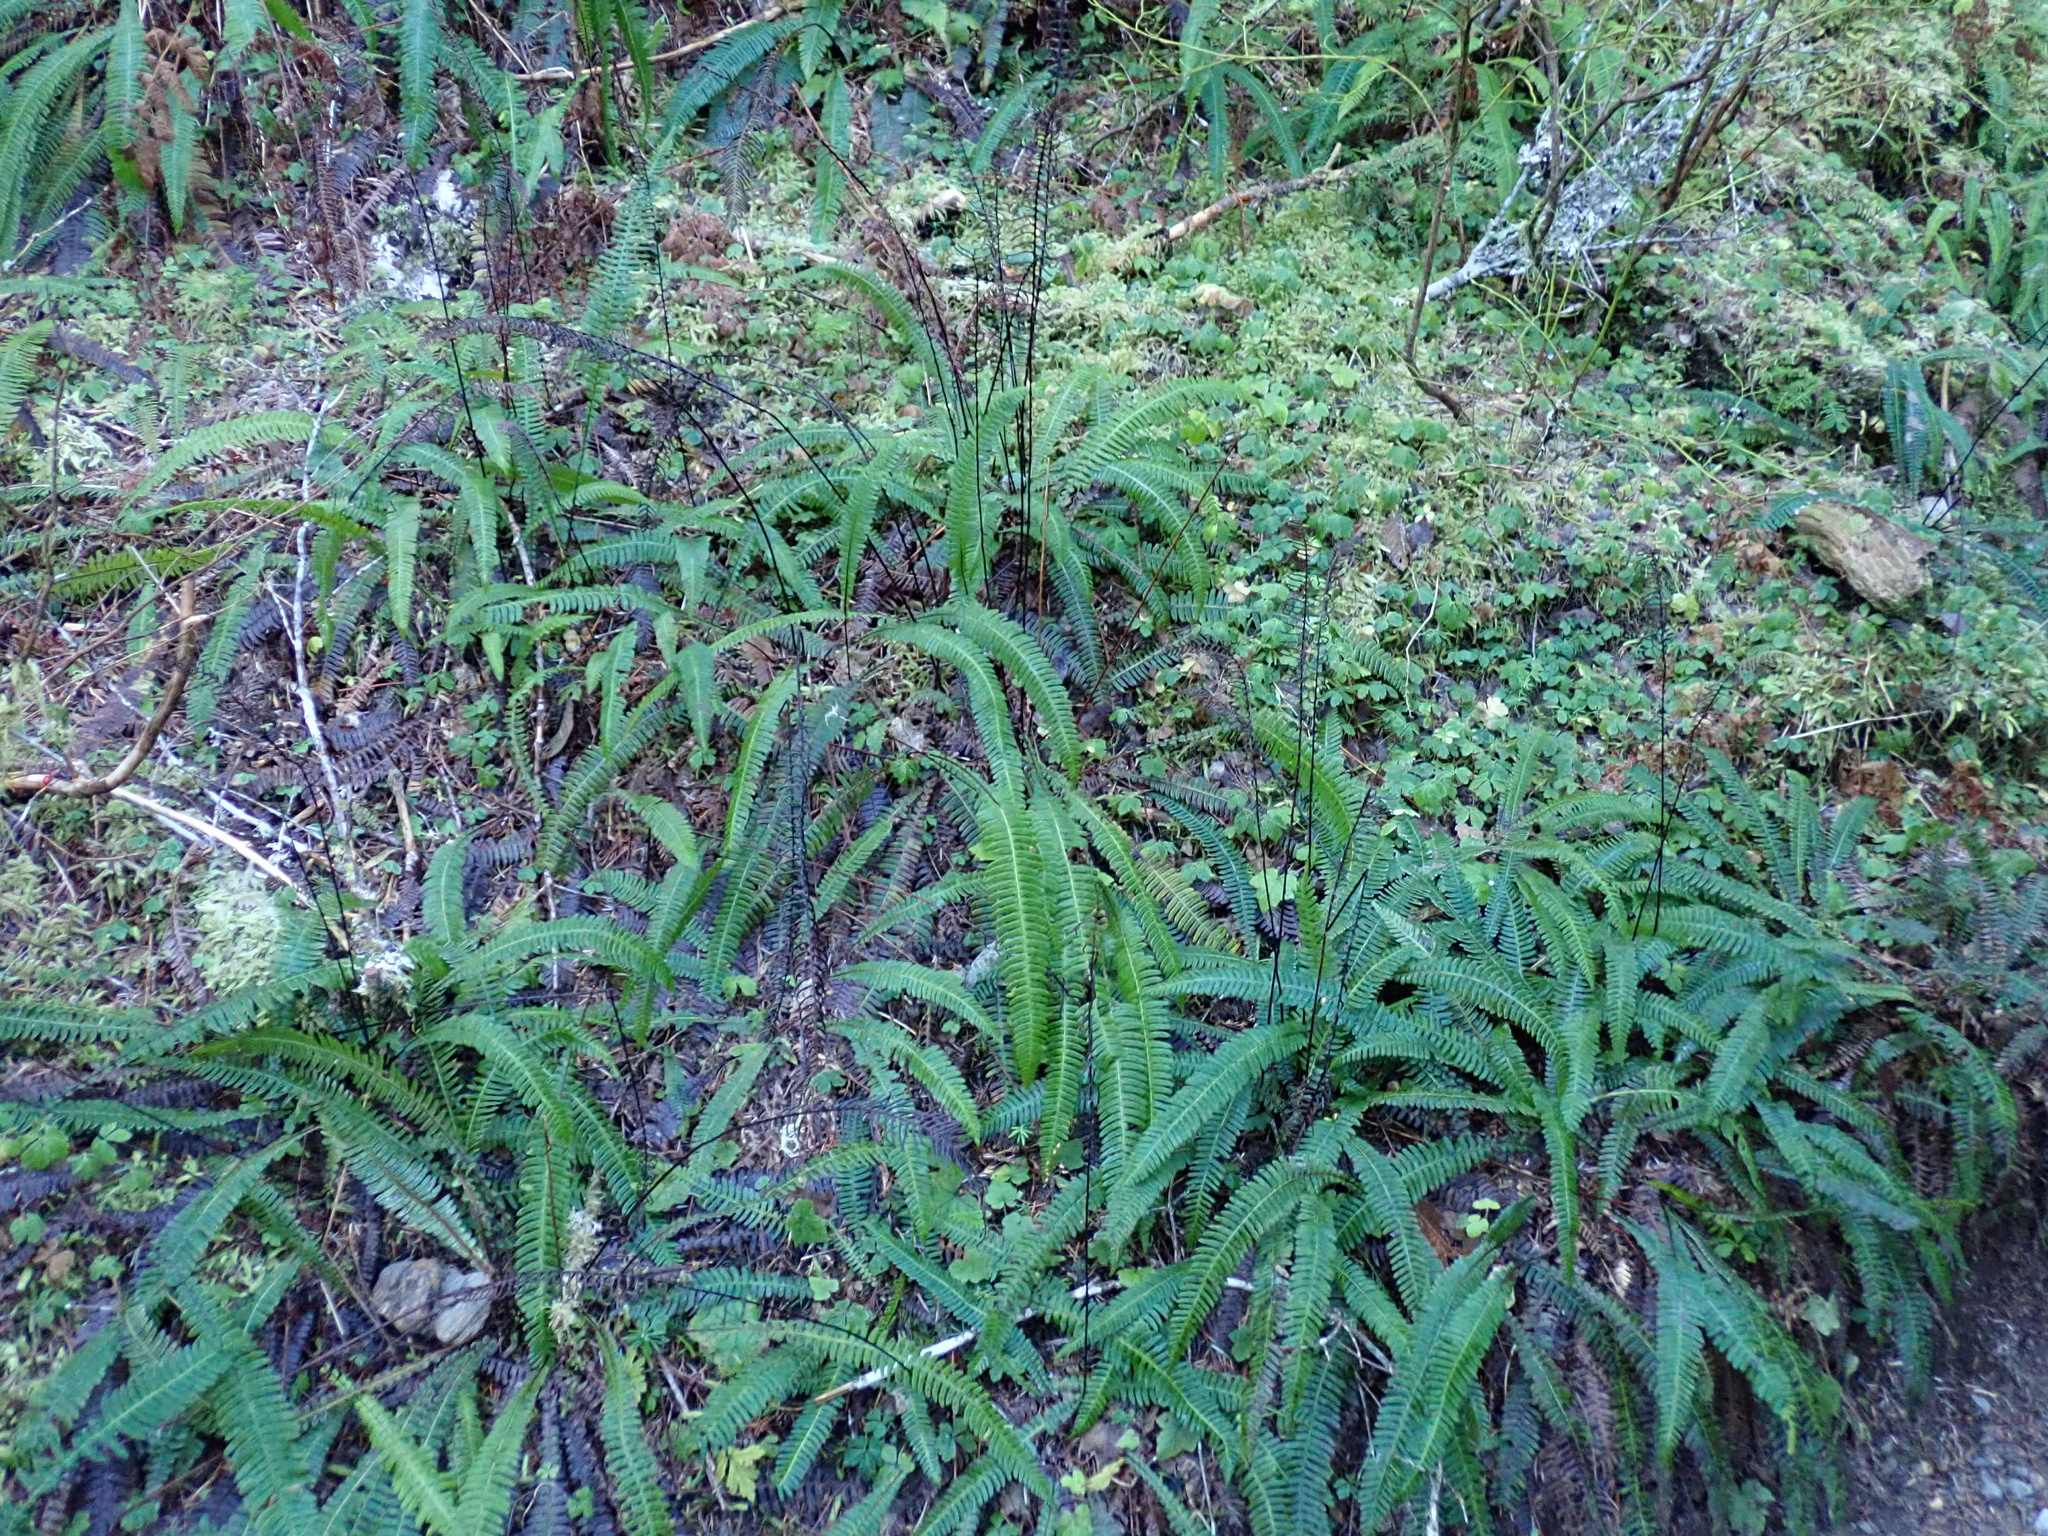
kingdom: Plantae
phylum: Tracheophyta
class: Polypodiopsida
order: Polypodiales
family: Blechnaceae
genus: Struthiopteris
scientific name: Struthiopteris spicant
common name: Deer fern
